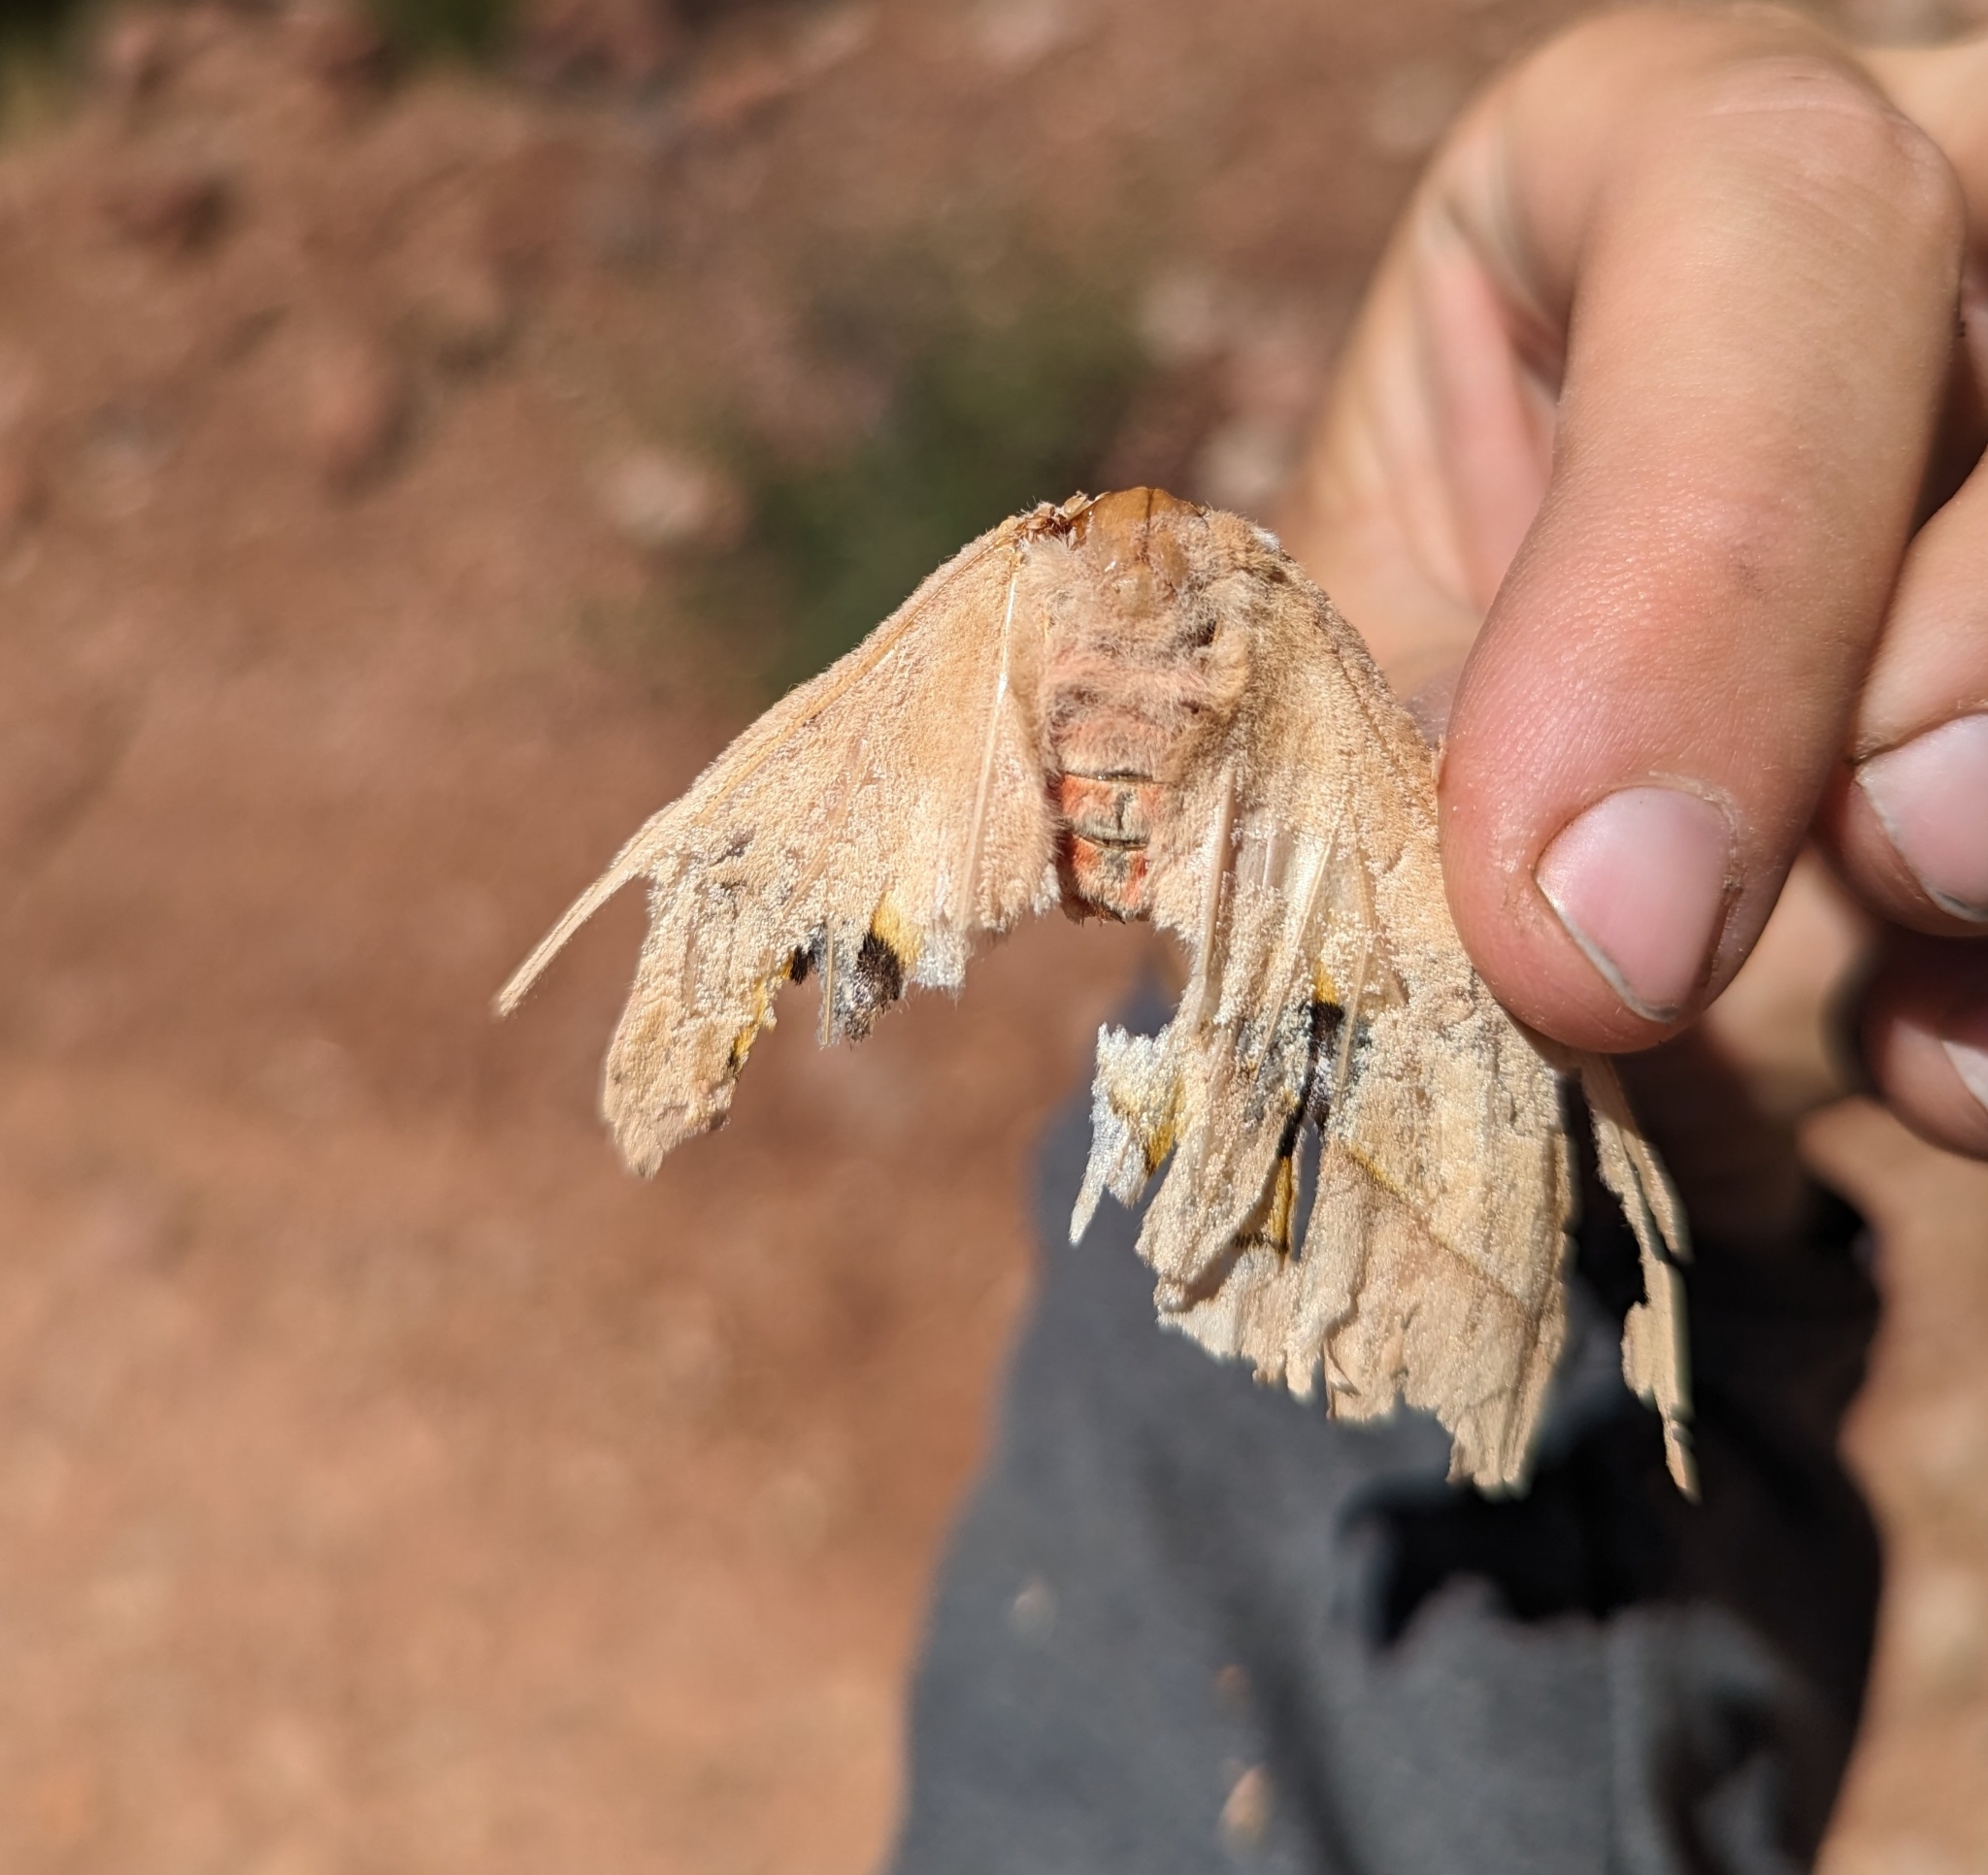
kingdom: Animalia
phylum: Arthropoda
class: Insecta
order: Lepidoptera
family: Saturniidae
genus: Automeris
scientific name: Automeris cecrops
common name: Cecrops eyed silkmoth
